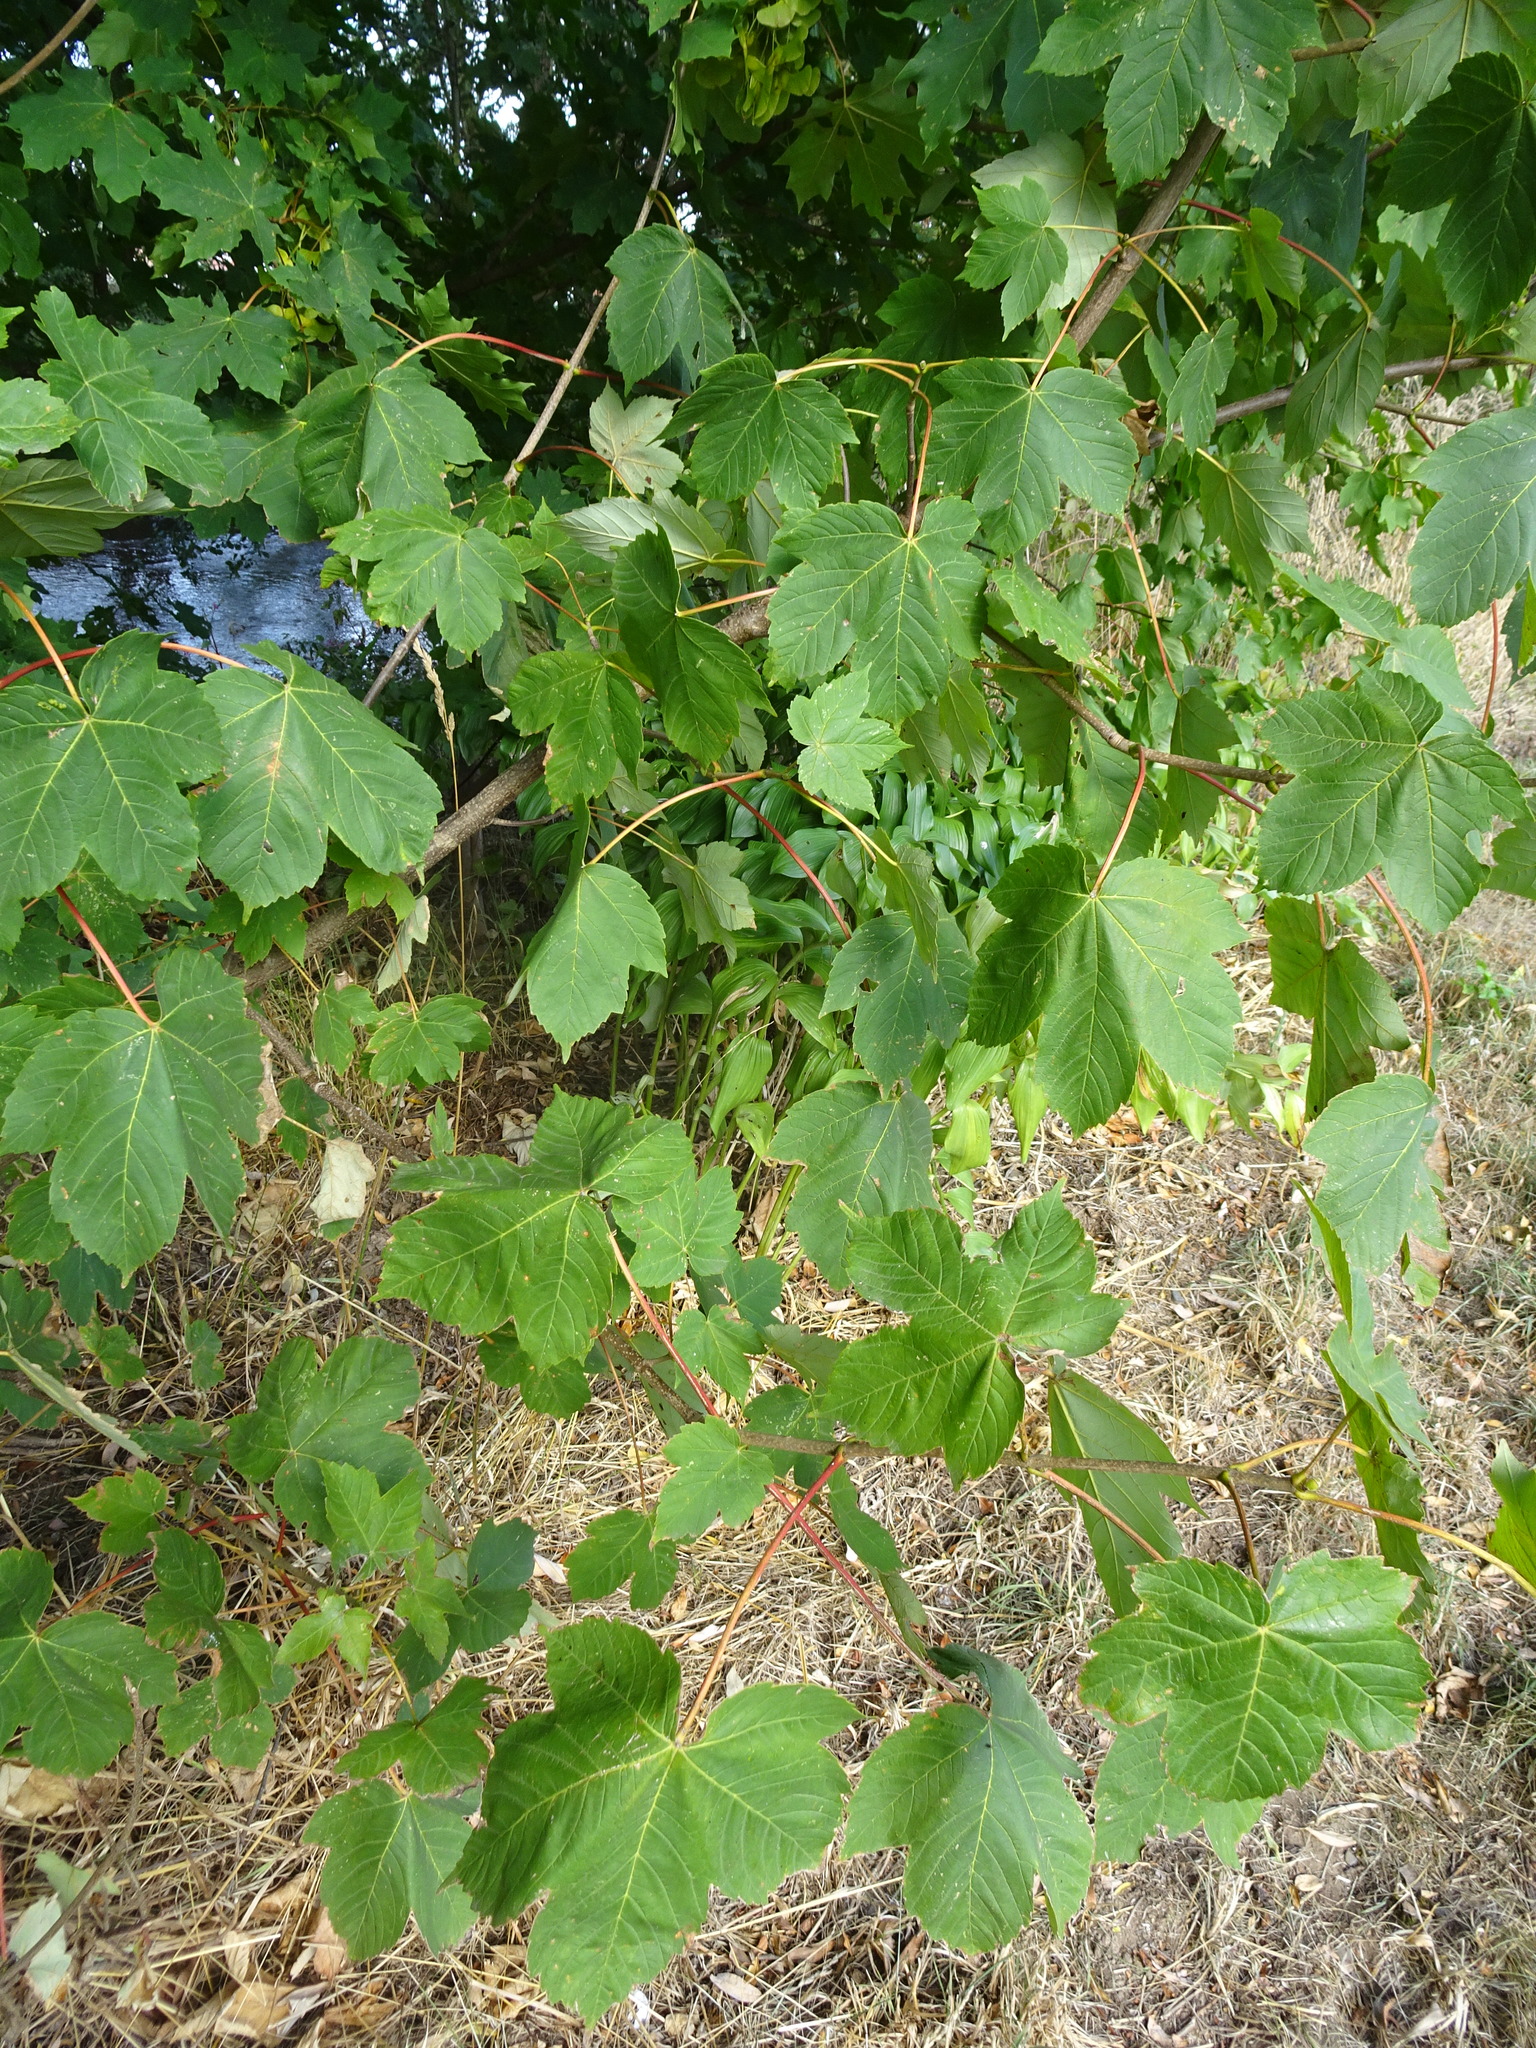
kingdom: Plantae
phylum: Tracheophyta
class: Magnoliopsida
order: Sapindales
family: Sapindaceae
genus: Acer
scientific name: Acer pseudoplatanus
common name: Sycamore
